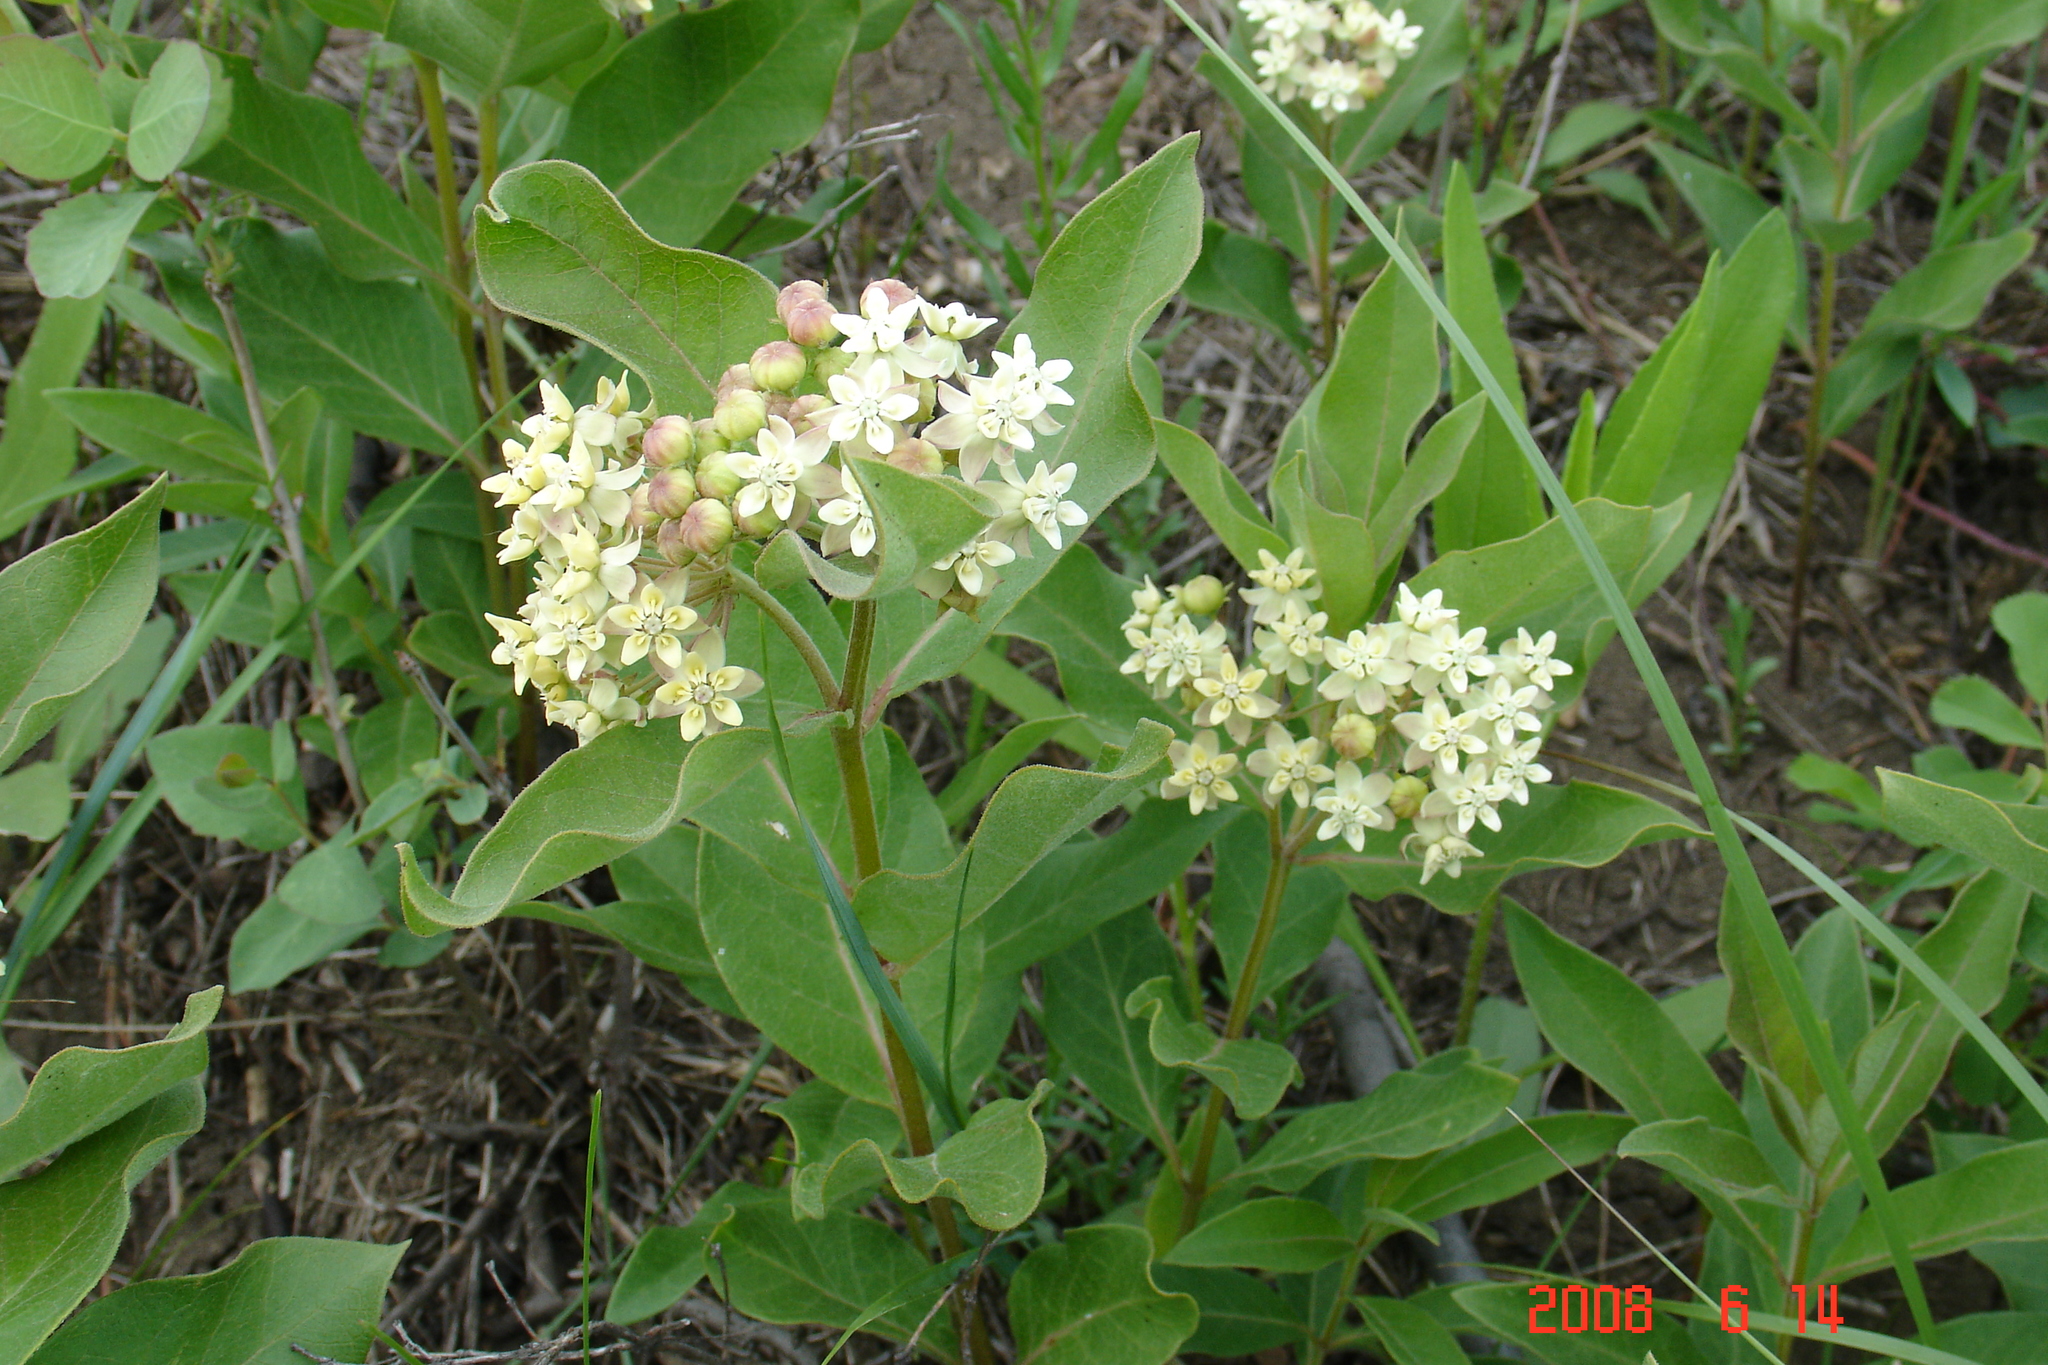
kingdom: Plantae
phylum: Tracheophyta
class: Magnoliopsida
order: Gentianales
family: Apocynaceae
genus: Asclepias
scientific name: Asclepias ovalifolia
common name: Dwarf milkweed
